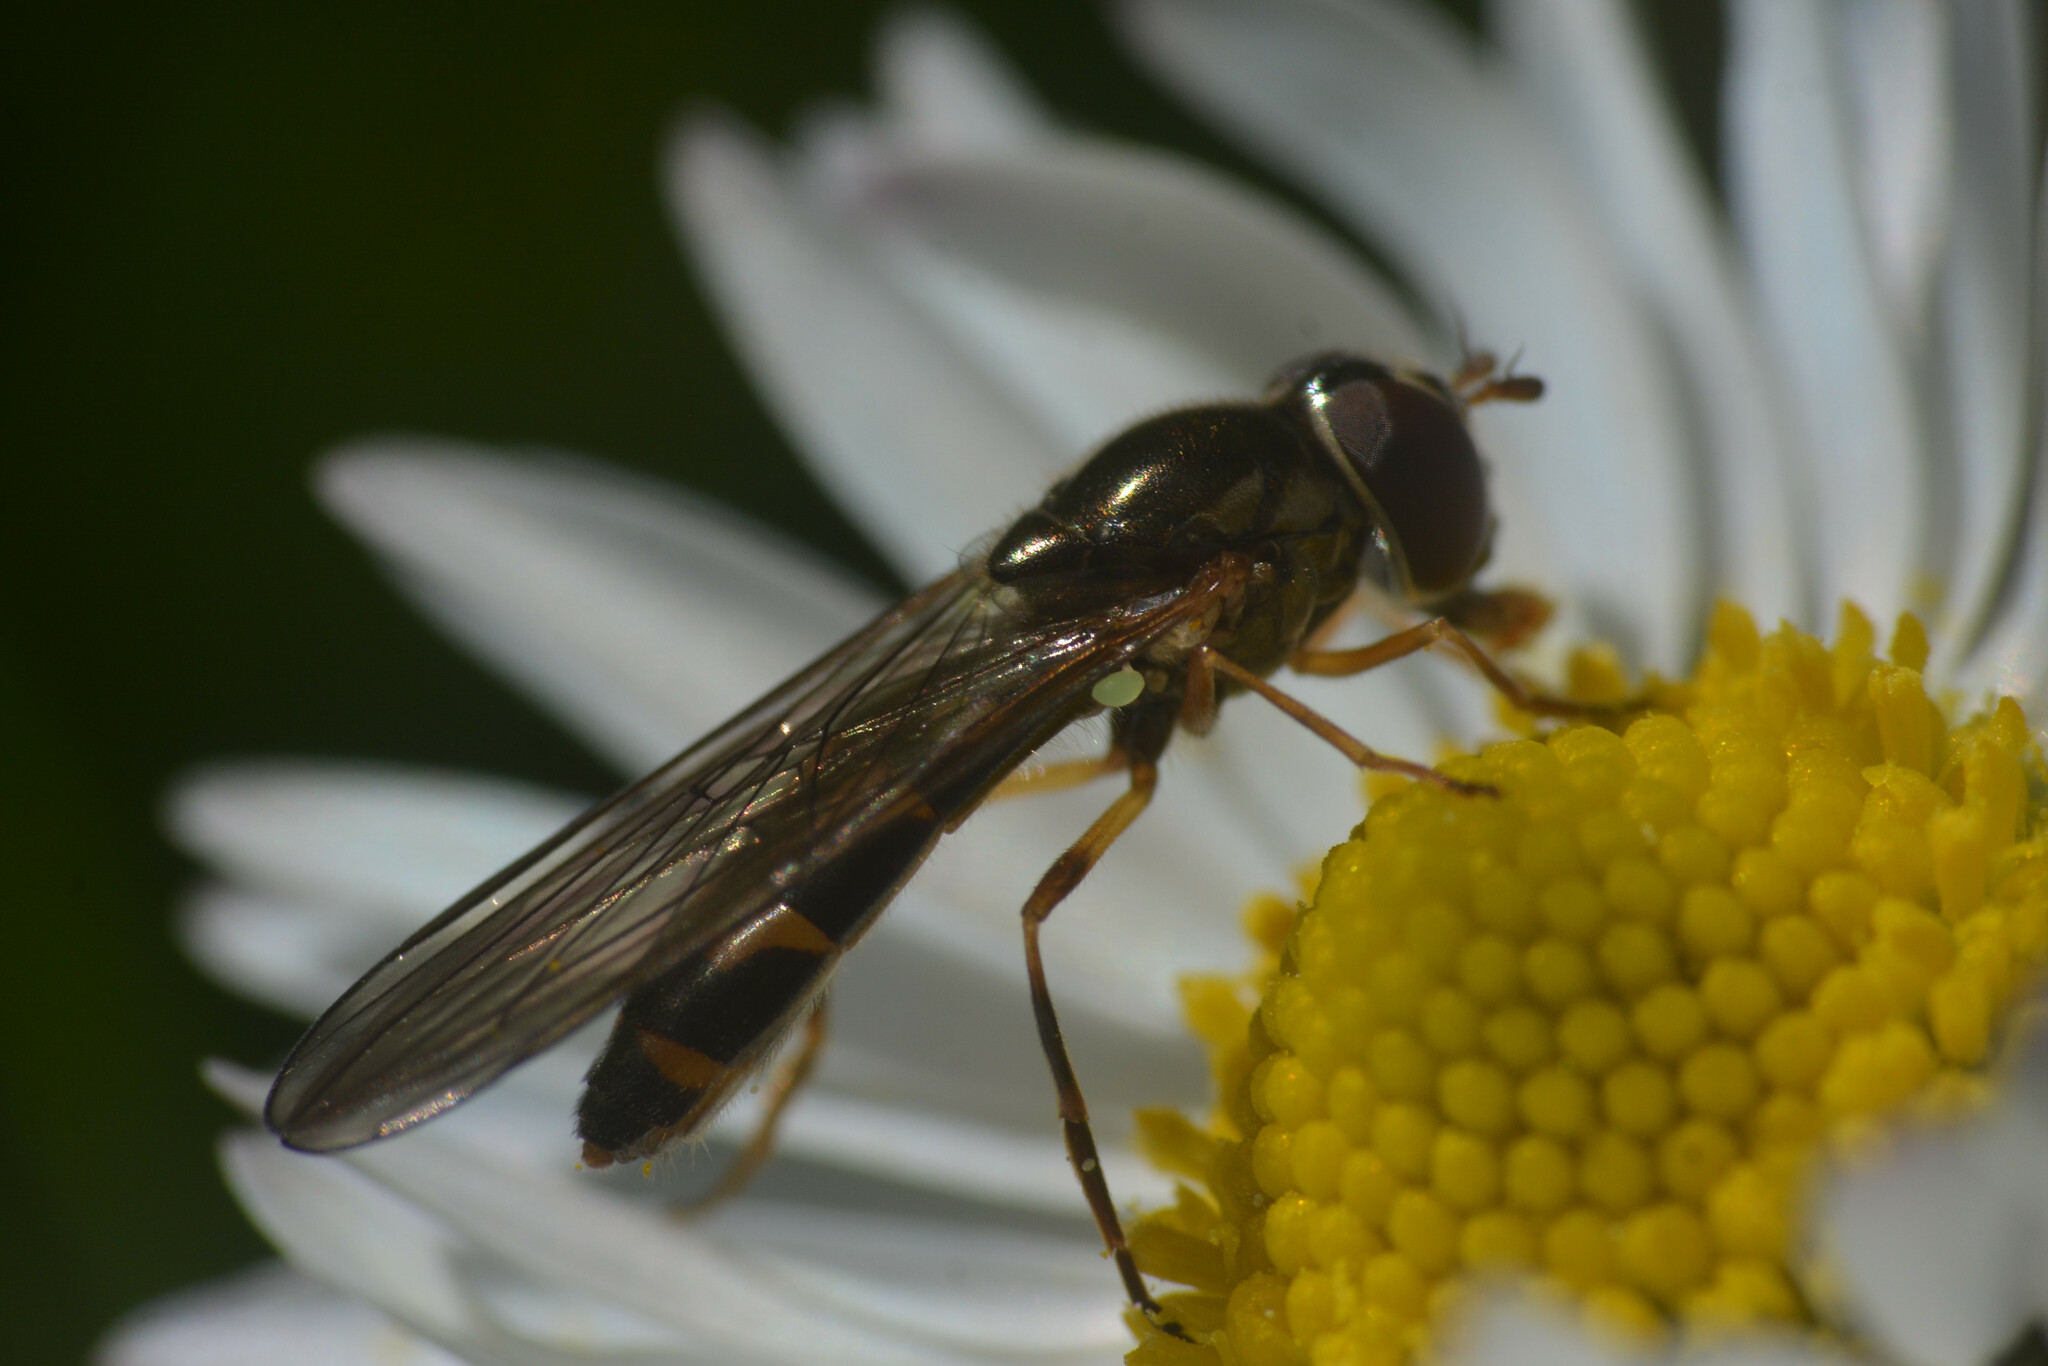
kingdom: Animalia
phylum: Arthropoda
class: Insecta
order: Diptera
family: Syrphidae
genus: Melanostoma
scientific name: Melanostoma scalare
